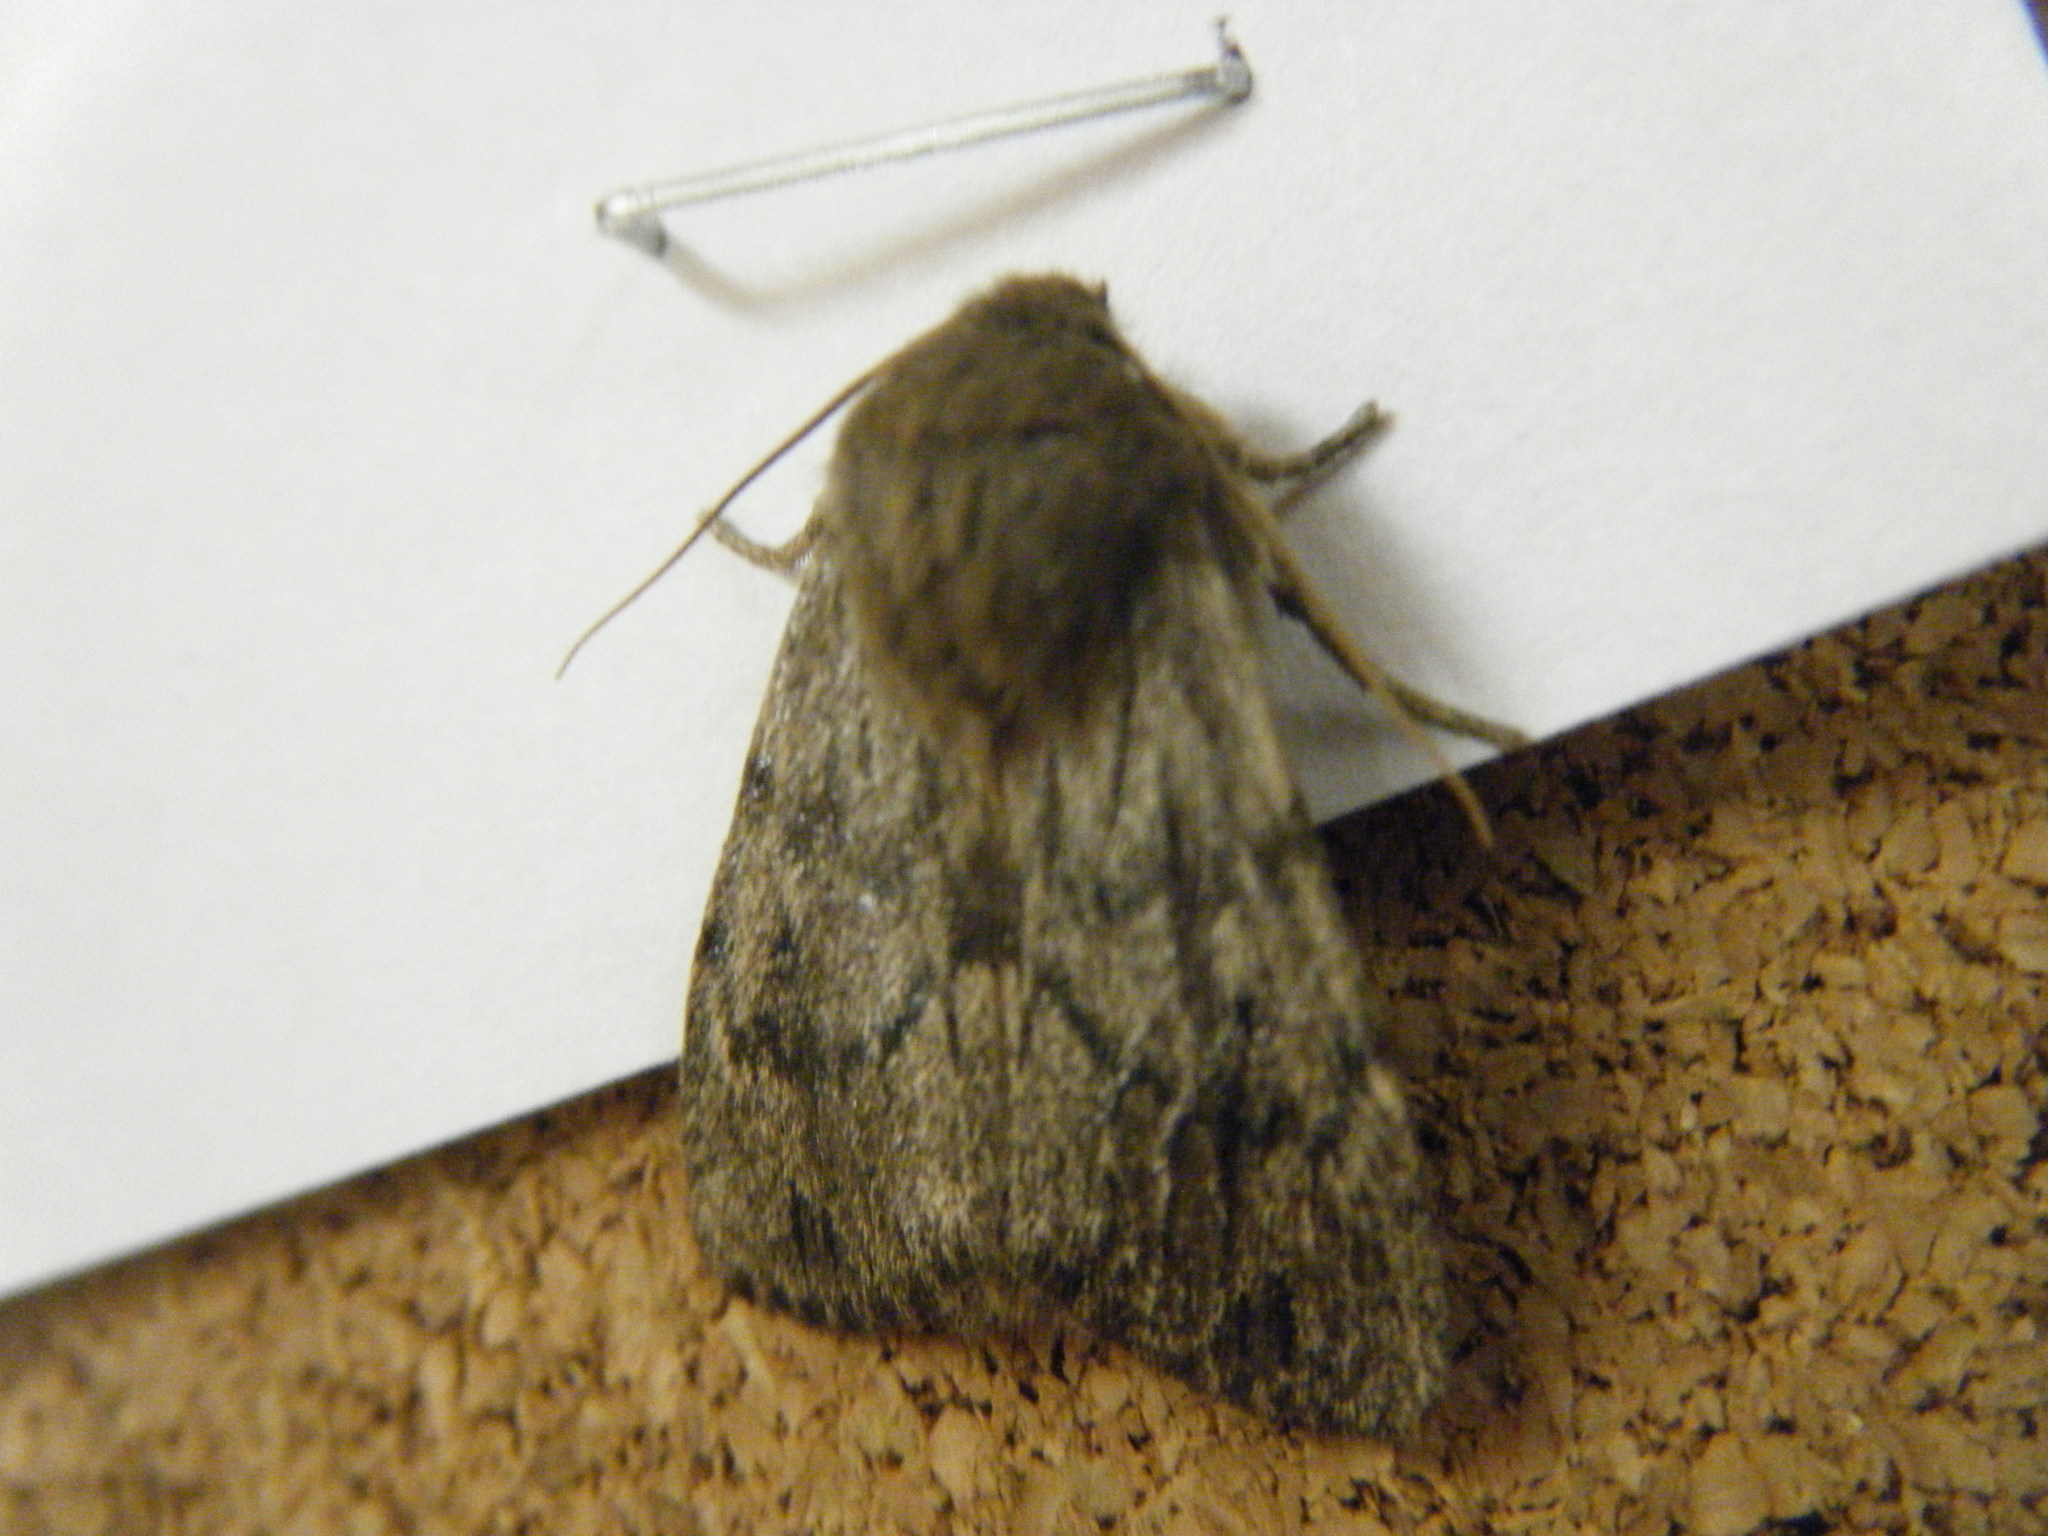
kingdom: Animalia
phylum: Arthropoda
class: Insecta
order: Lepidoptera
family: Noctuidae
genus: Ufeus
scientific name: Ufeus satyricus
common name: Brown satyr moth
